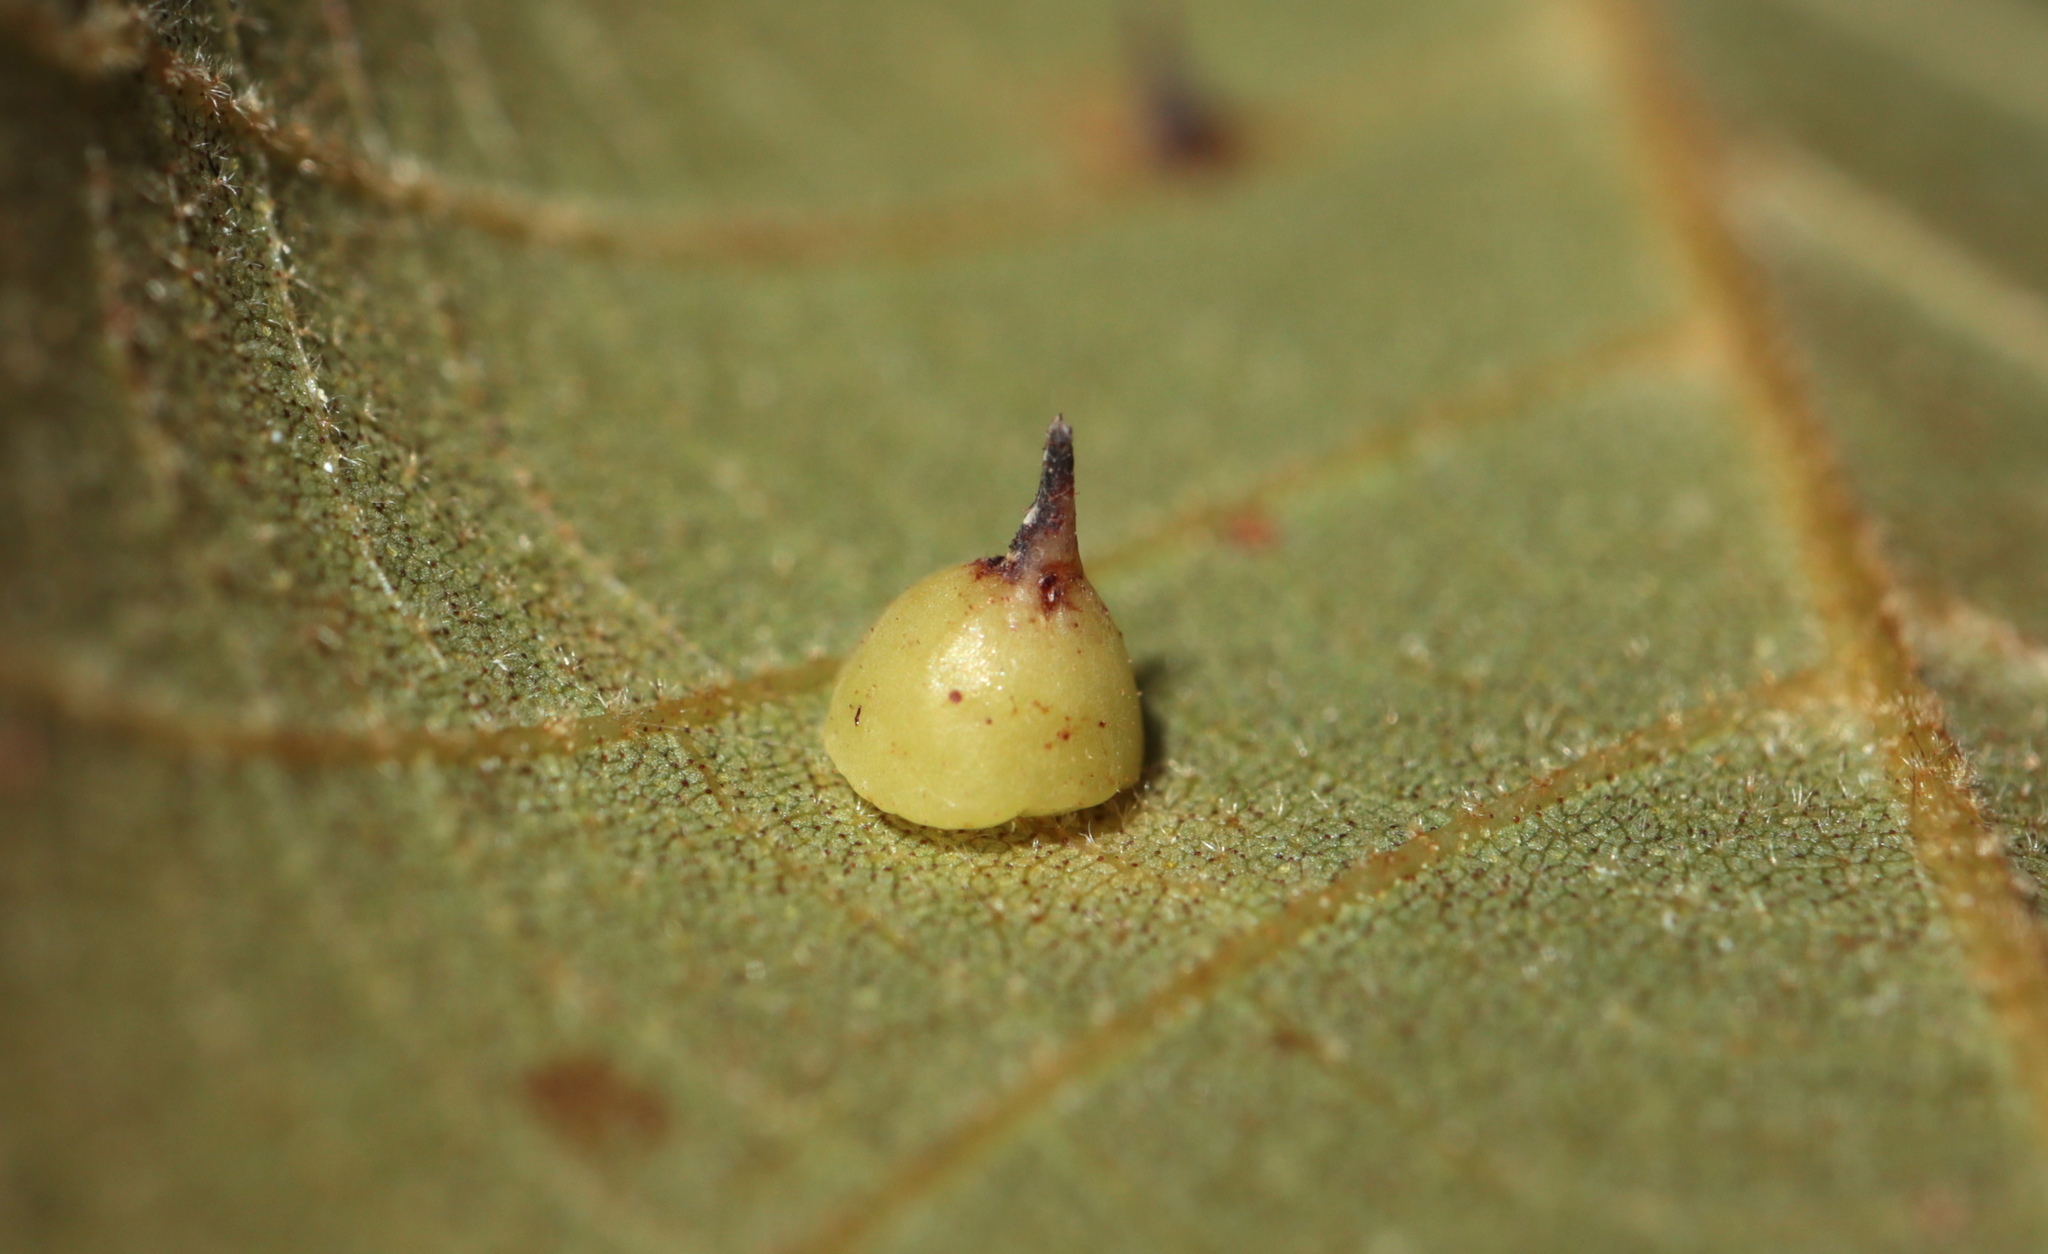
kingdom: Animalia
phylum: Arthropoda
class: Insecta
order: Diptera
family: Cecidomyiidae
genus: Caryomyia
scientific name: Caryomyia sanguinolenta
